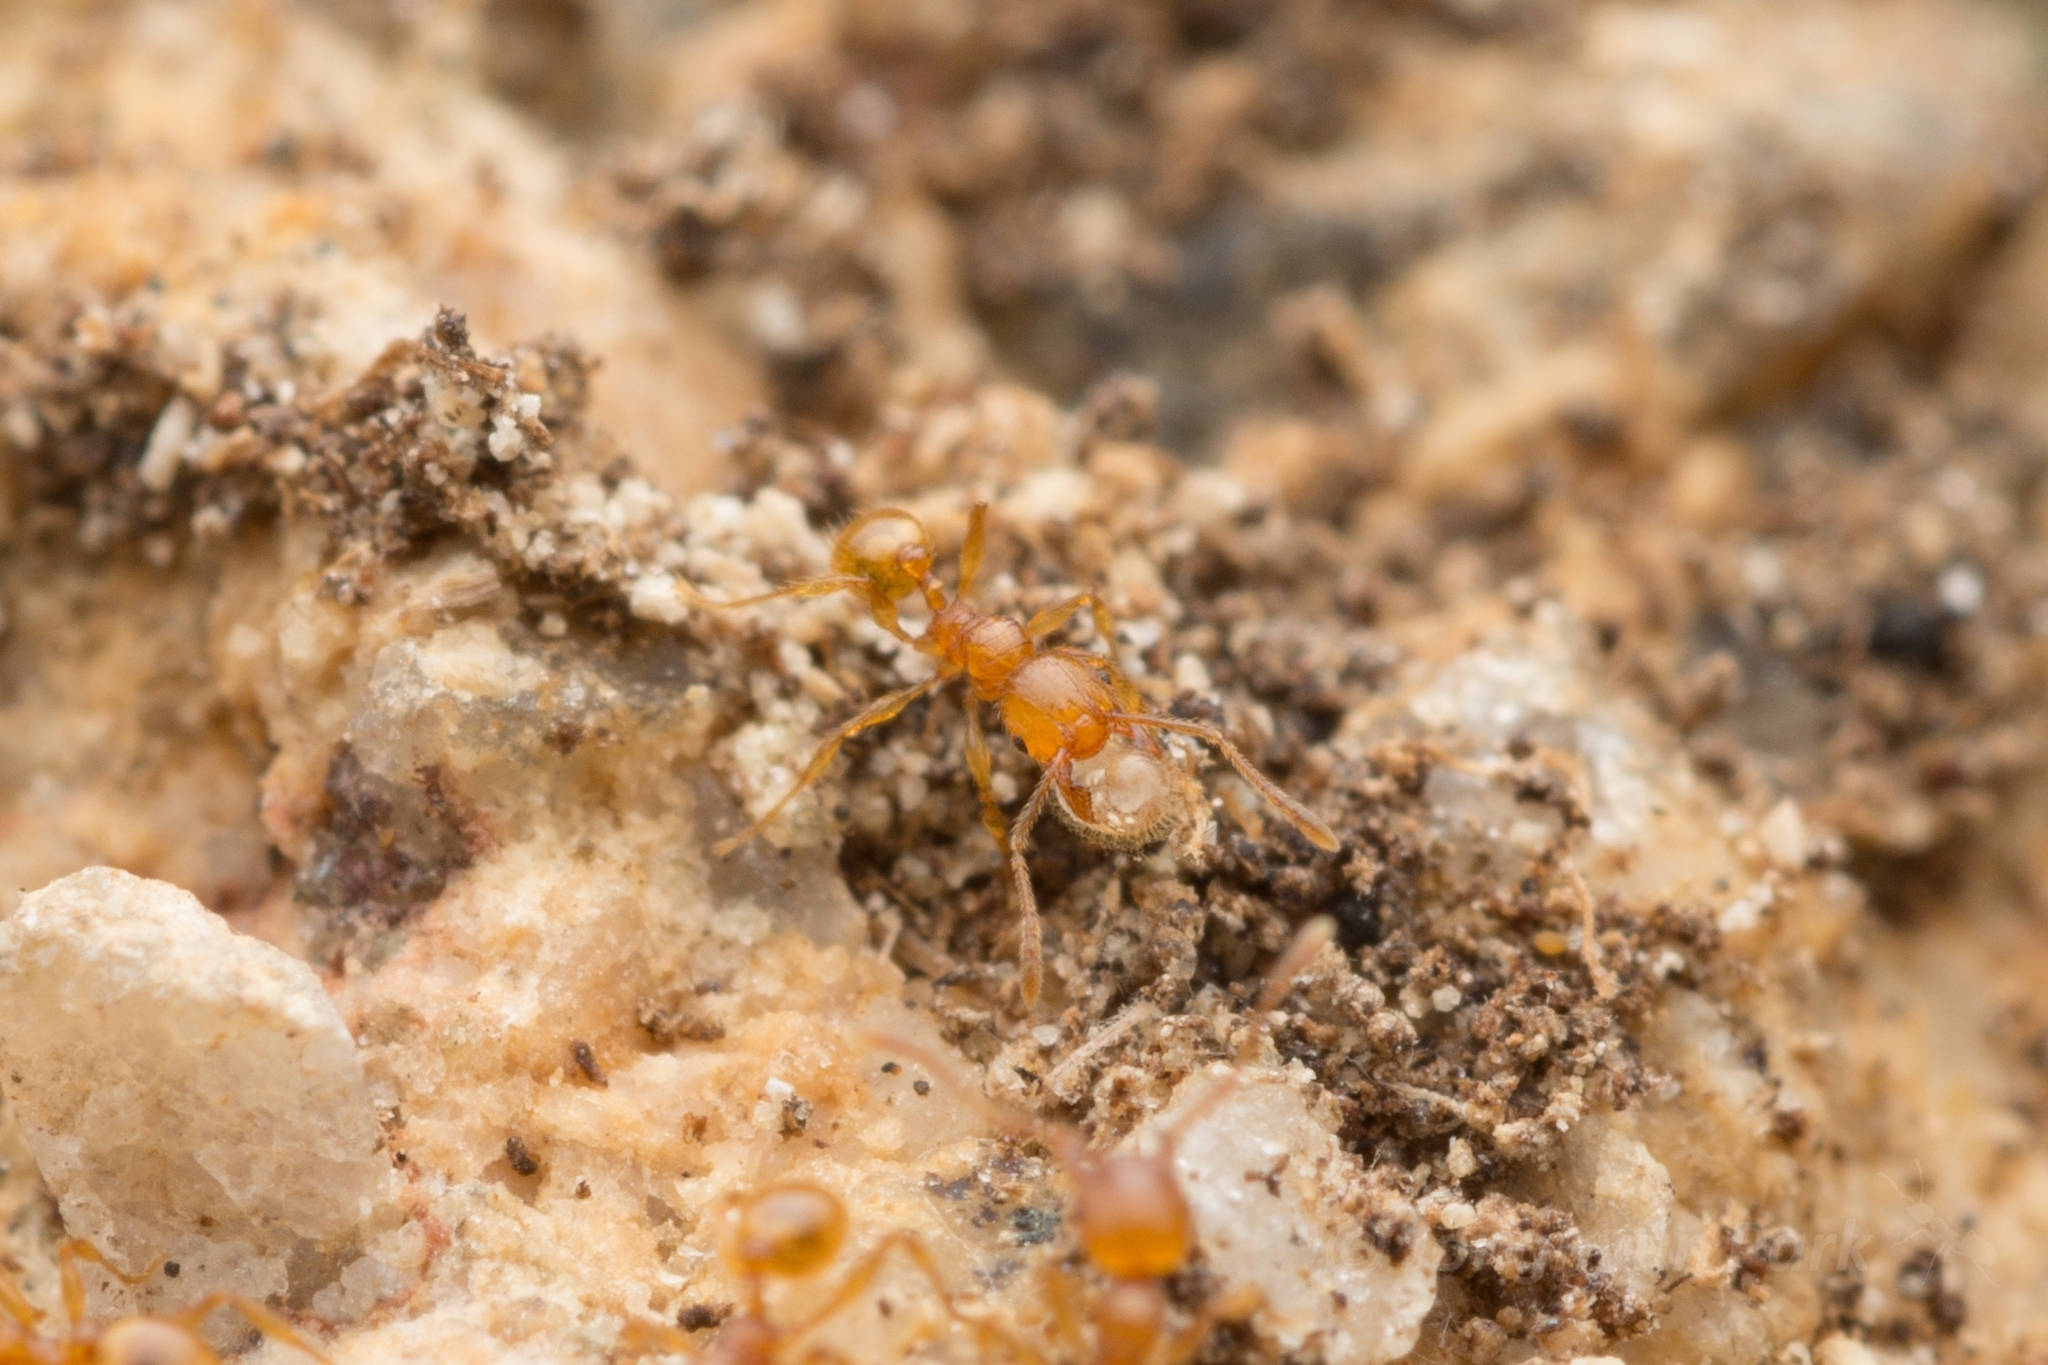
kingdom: Animalia
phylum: Arthropoda
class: Insecta
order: Hymenoptera
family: Formicidae
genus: Pheidole
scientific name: Pheidole fervida
